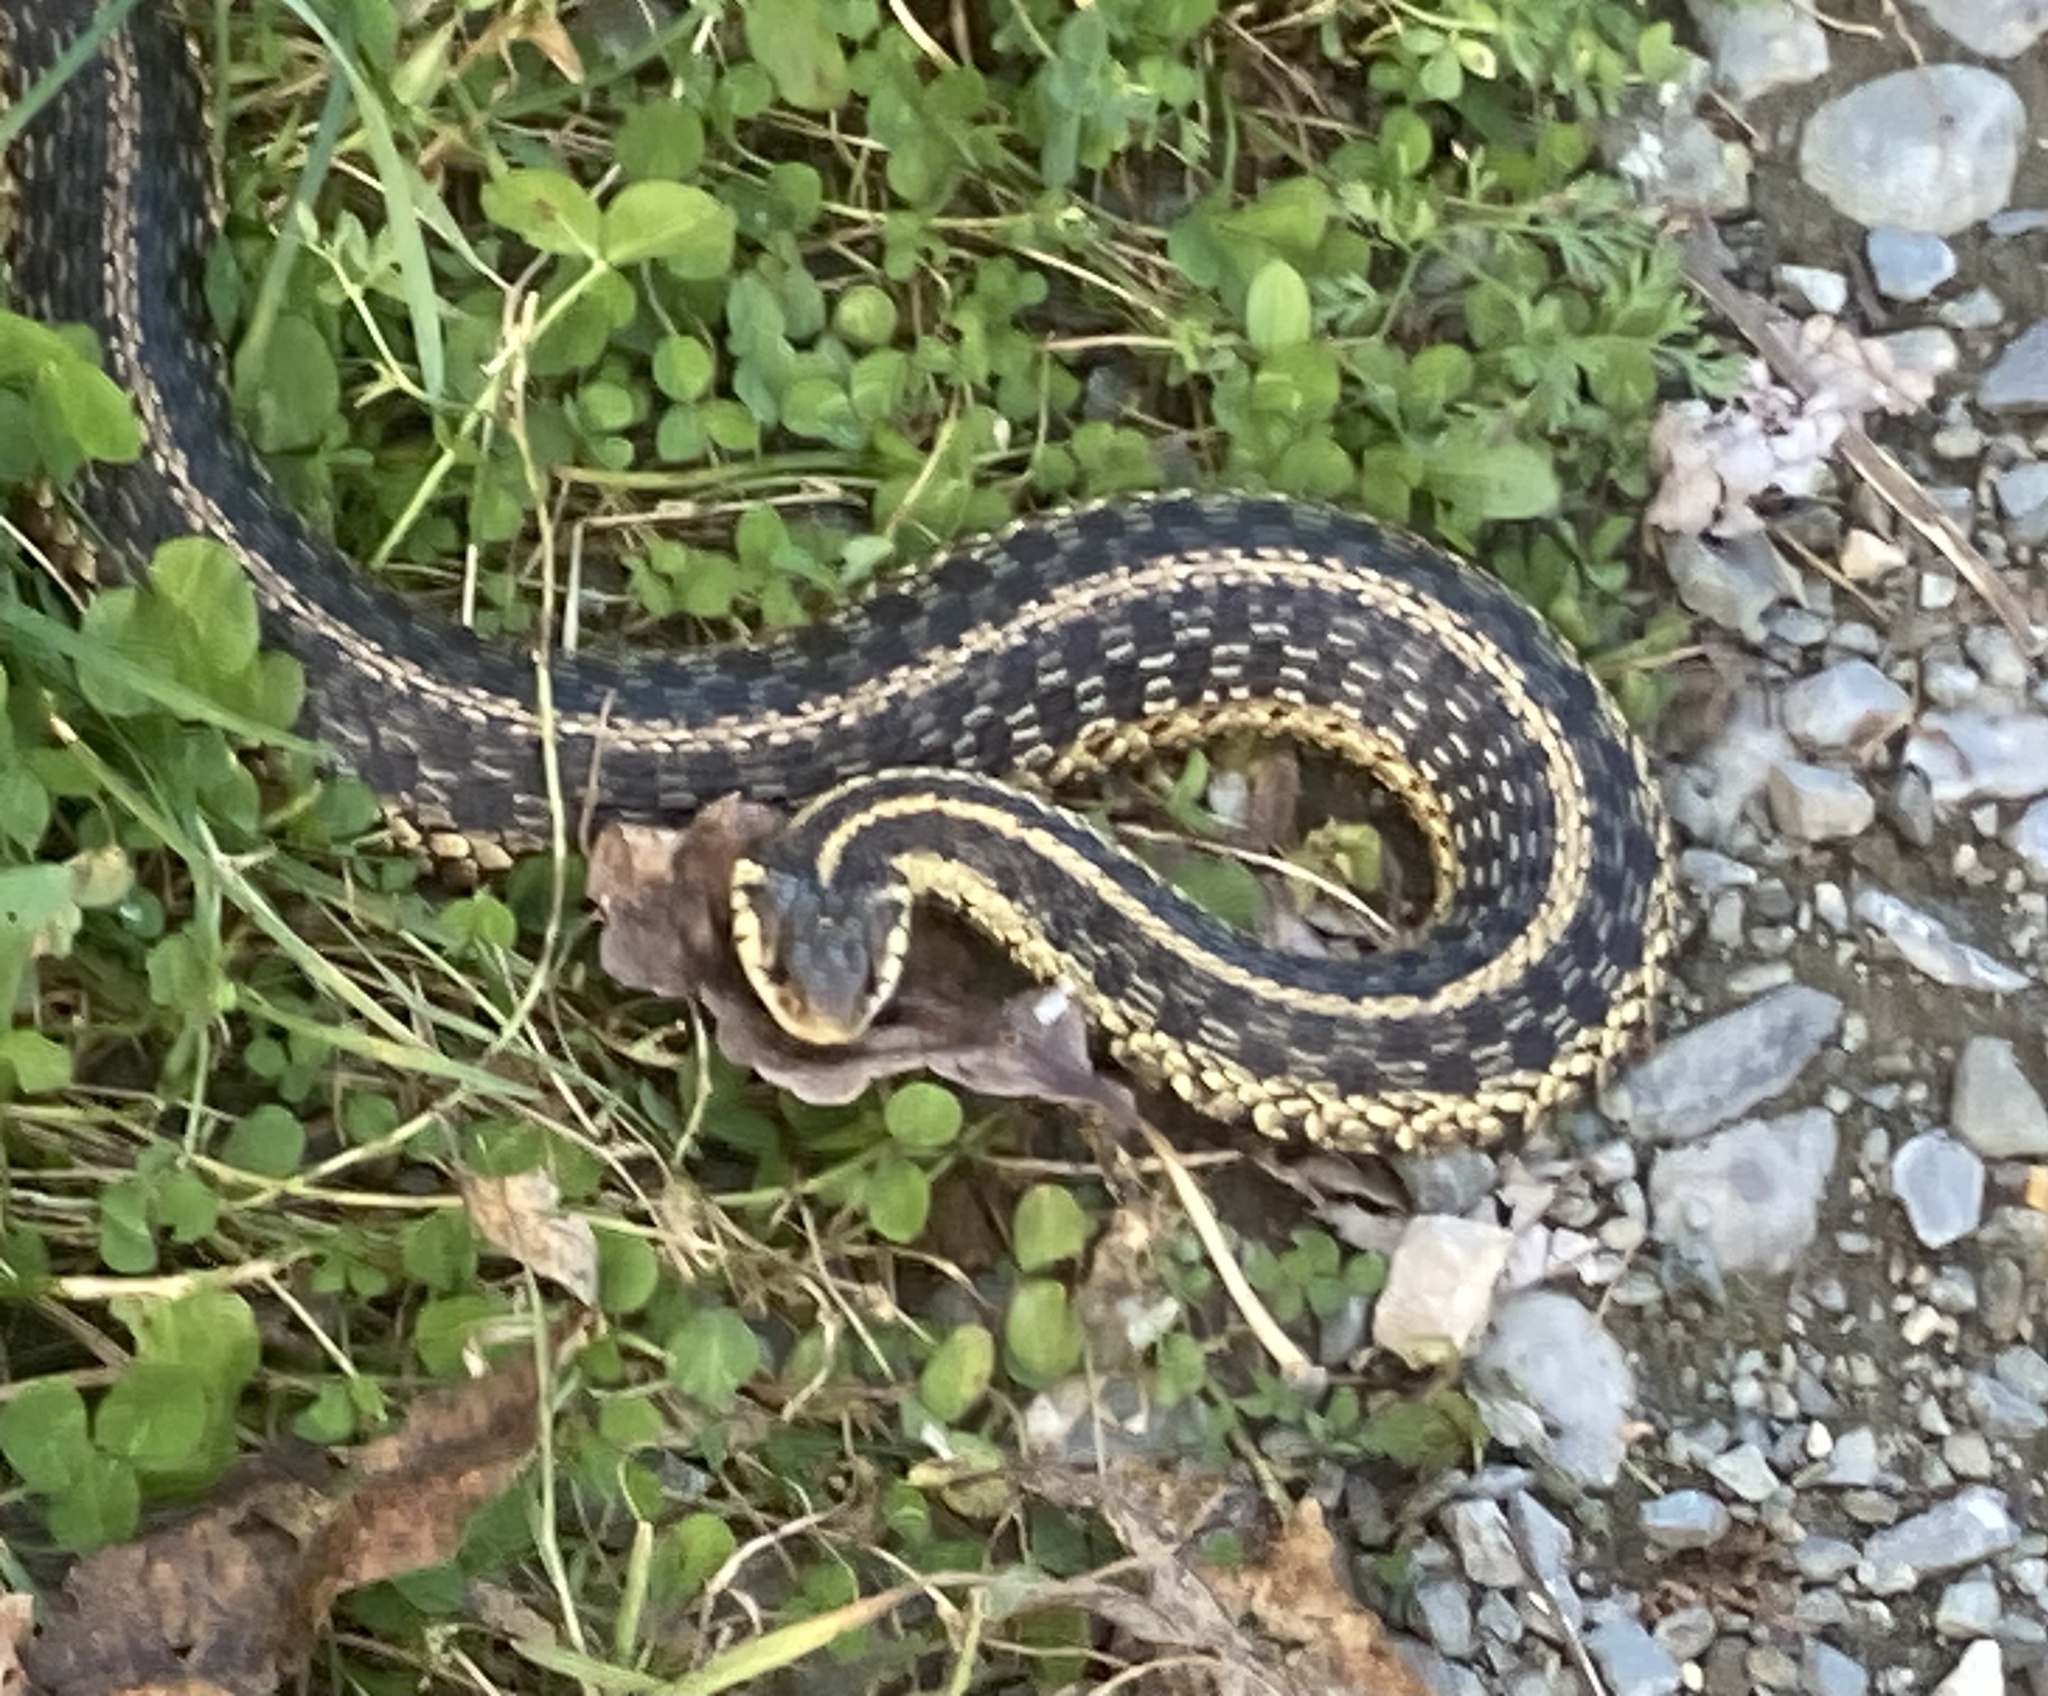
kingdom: Animalia
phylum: Chordata
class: Squamata
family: Colubridae
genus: Thamnophis
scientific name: Thamnophis sirtalis
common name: Common garter snake
